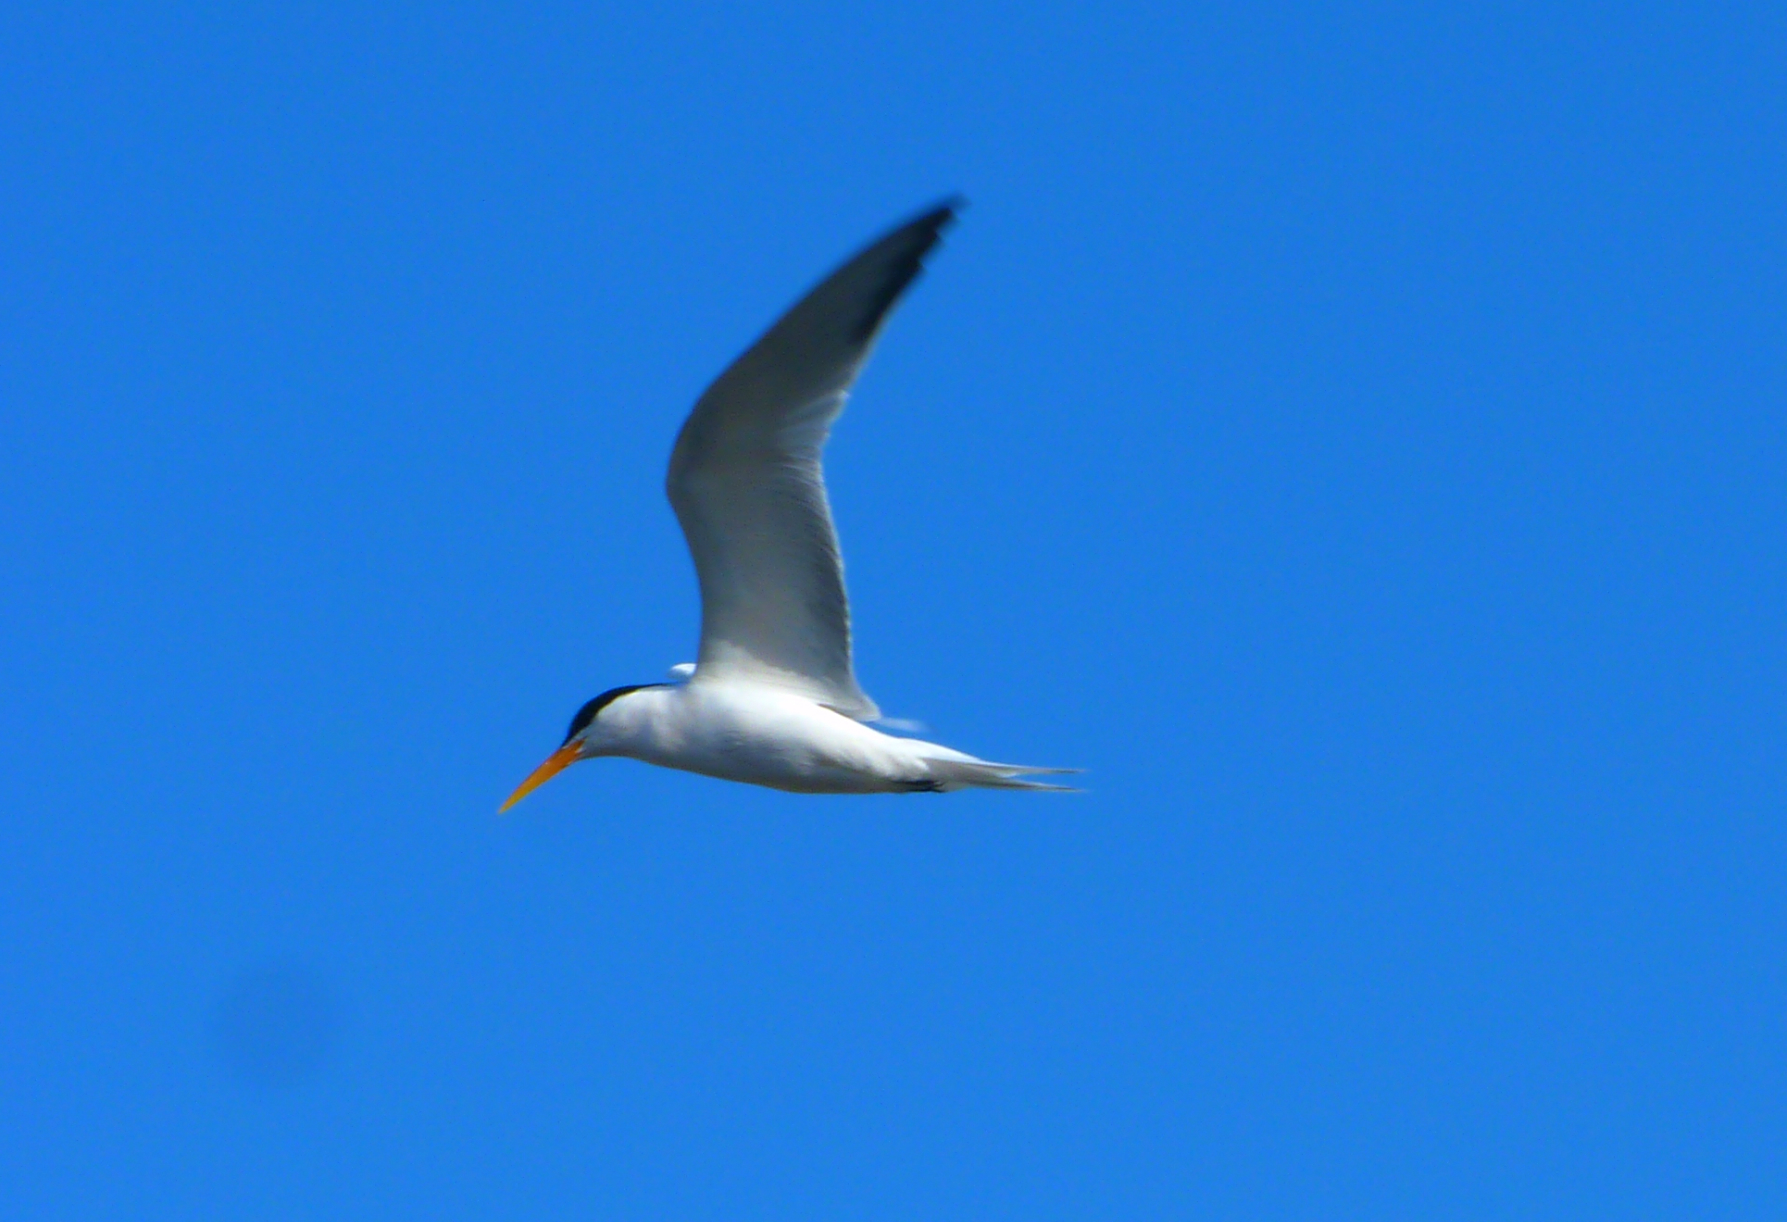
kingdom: Animalia
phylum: Chordata
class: Aves
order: Charadriiformes
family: Laridae
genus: Thalasseus
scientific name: Thalasseus elegans
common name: Elegant tern
